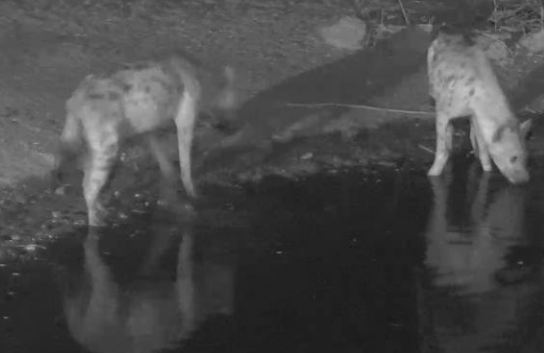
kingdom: Animalia
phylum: Chordata
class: Mammalia
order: Carnivora
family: Hyaenidae
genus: Crocuta
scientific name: Crocuta crocuta
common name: Spotted hyaena
